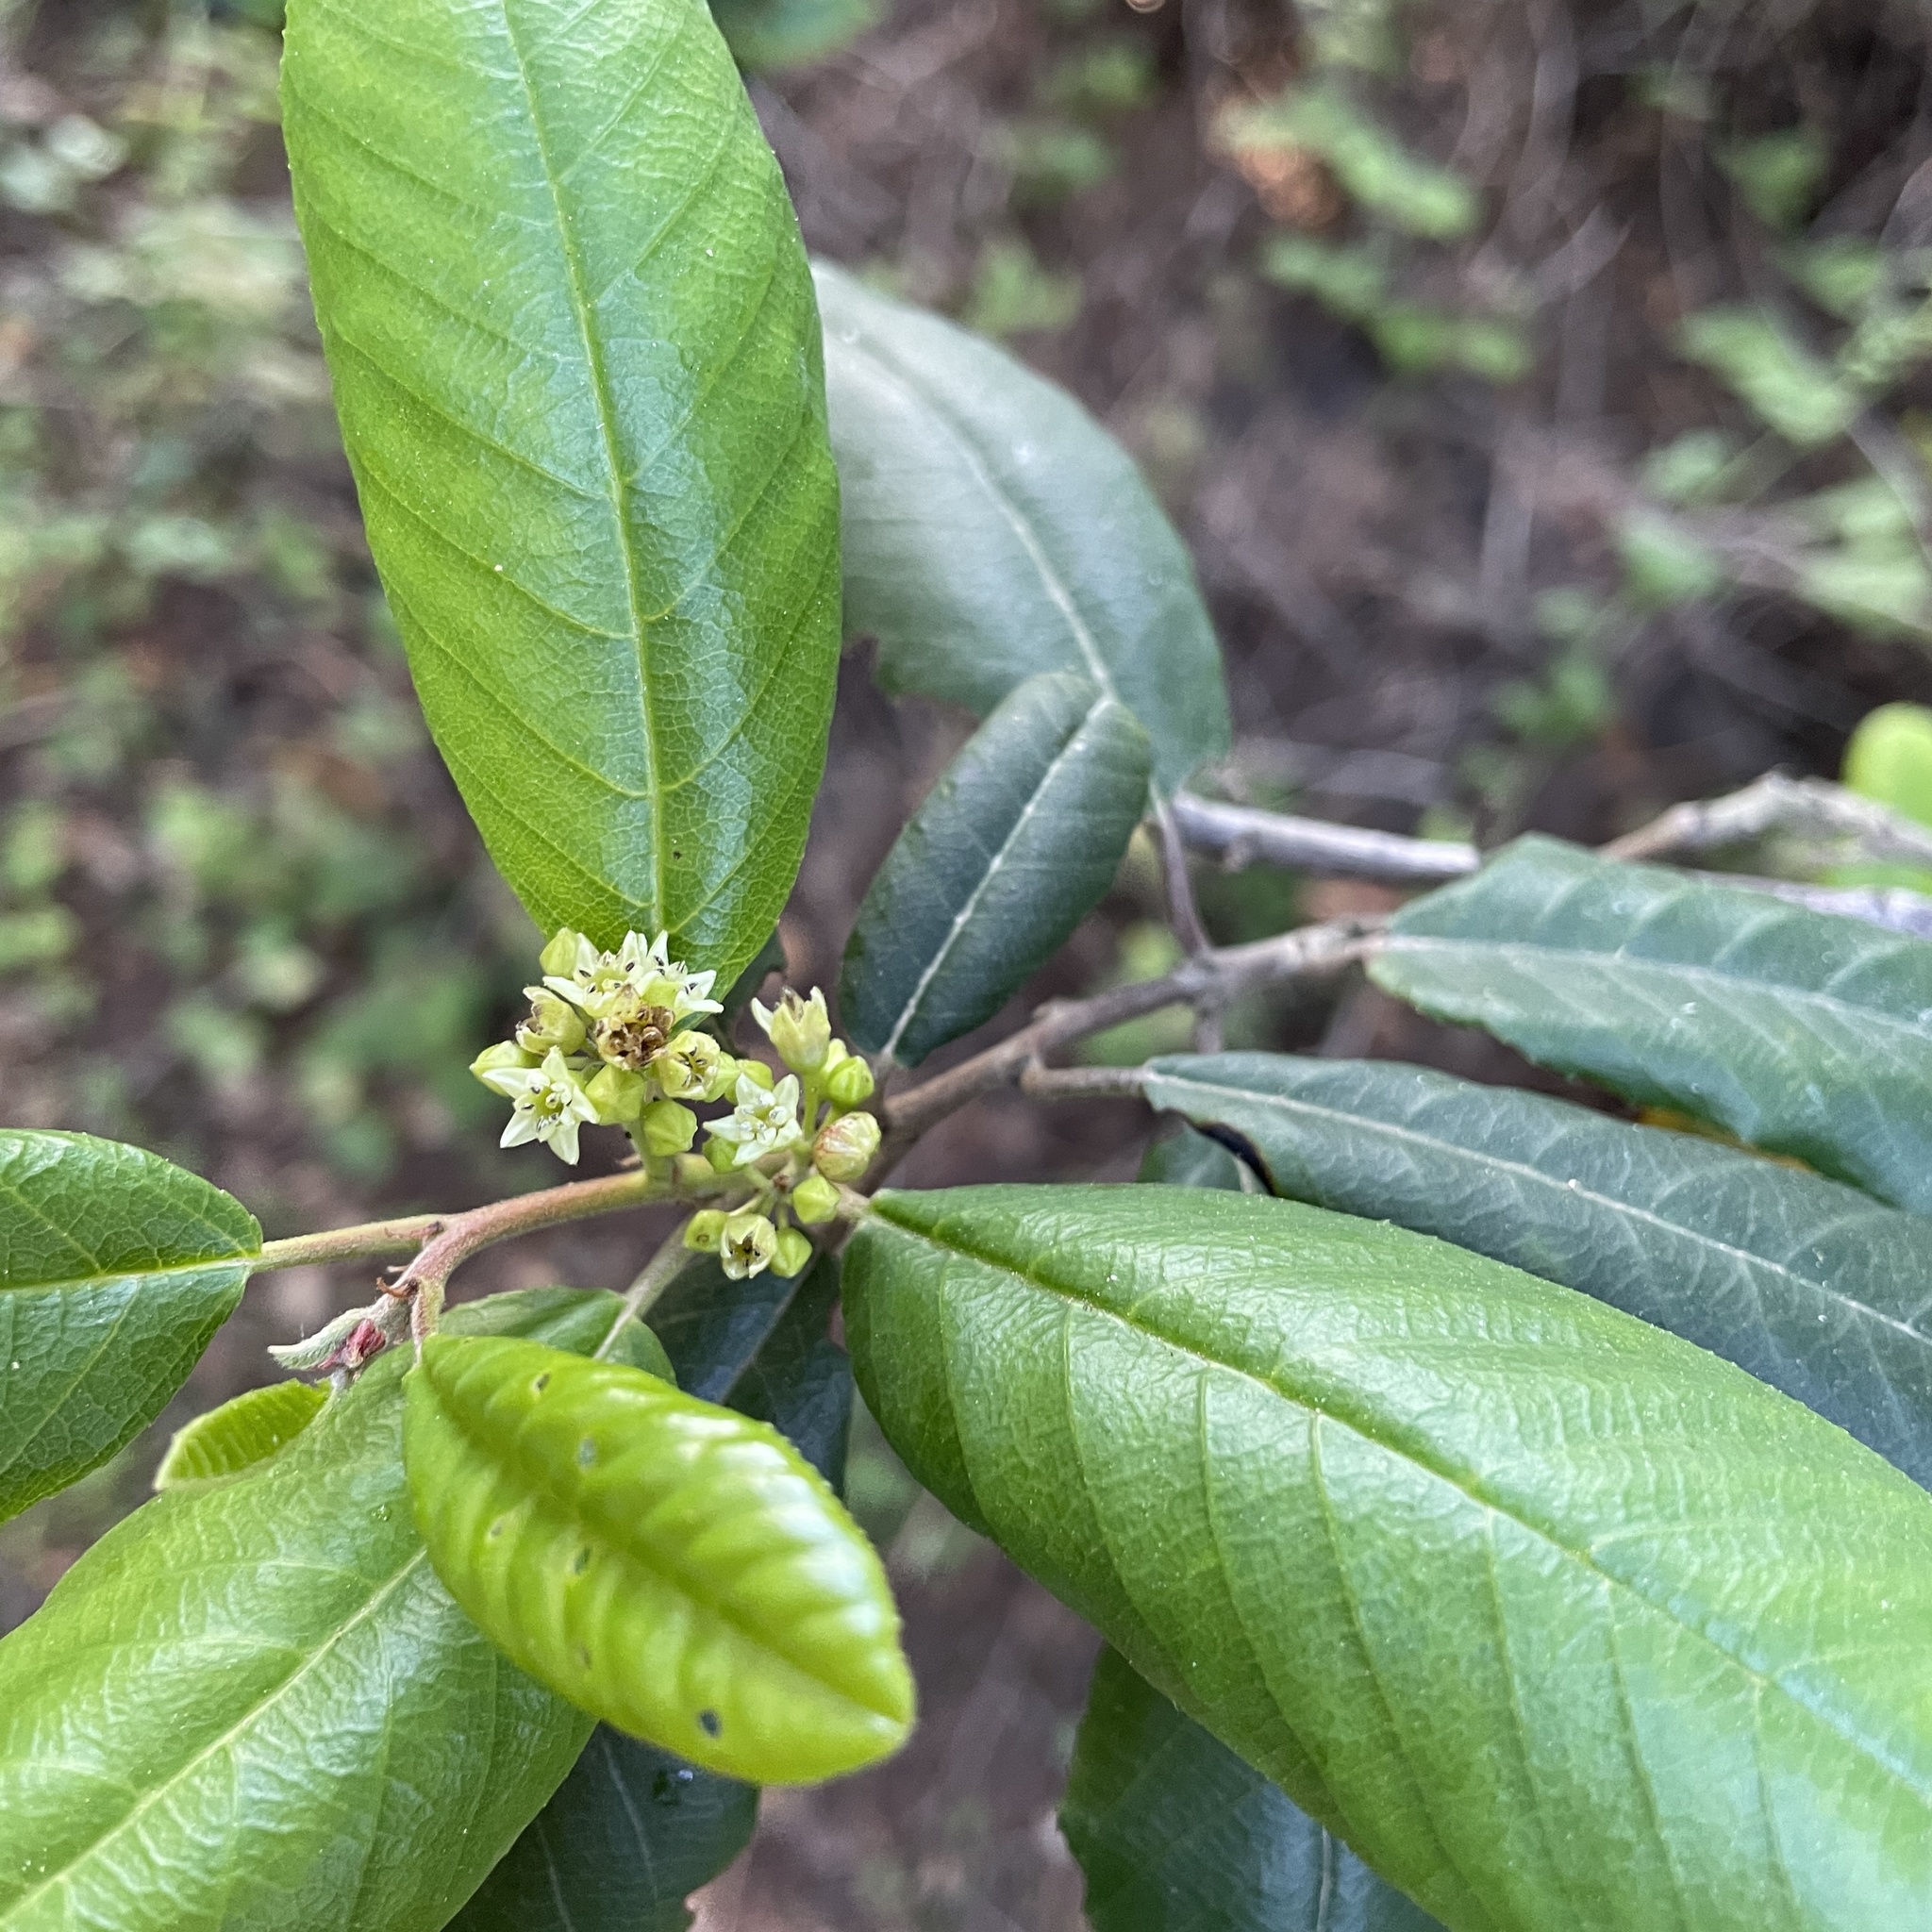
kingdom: Plantae
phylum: Tracheophyta
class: Magnoliopsida
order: Rosales
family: Rhamnaceae
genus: Frangula
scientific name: Frangula californica
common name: California buckthorn
